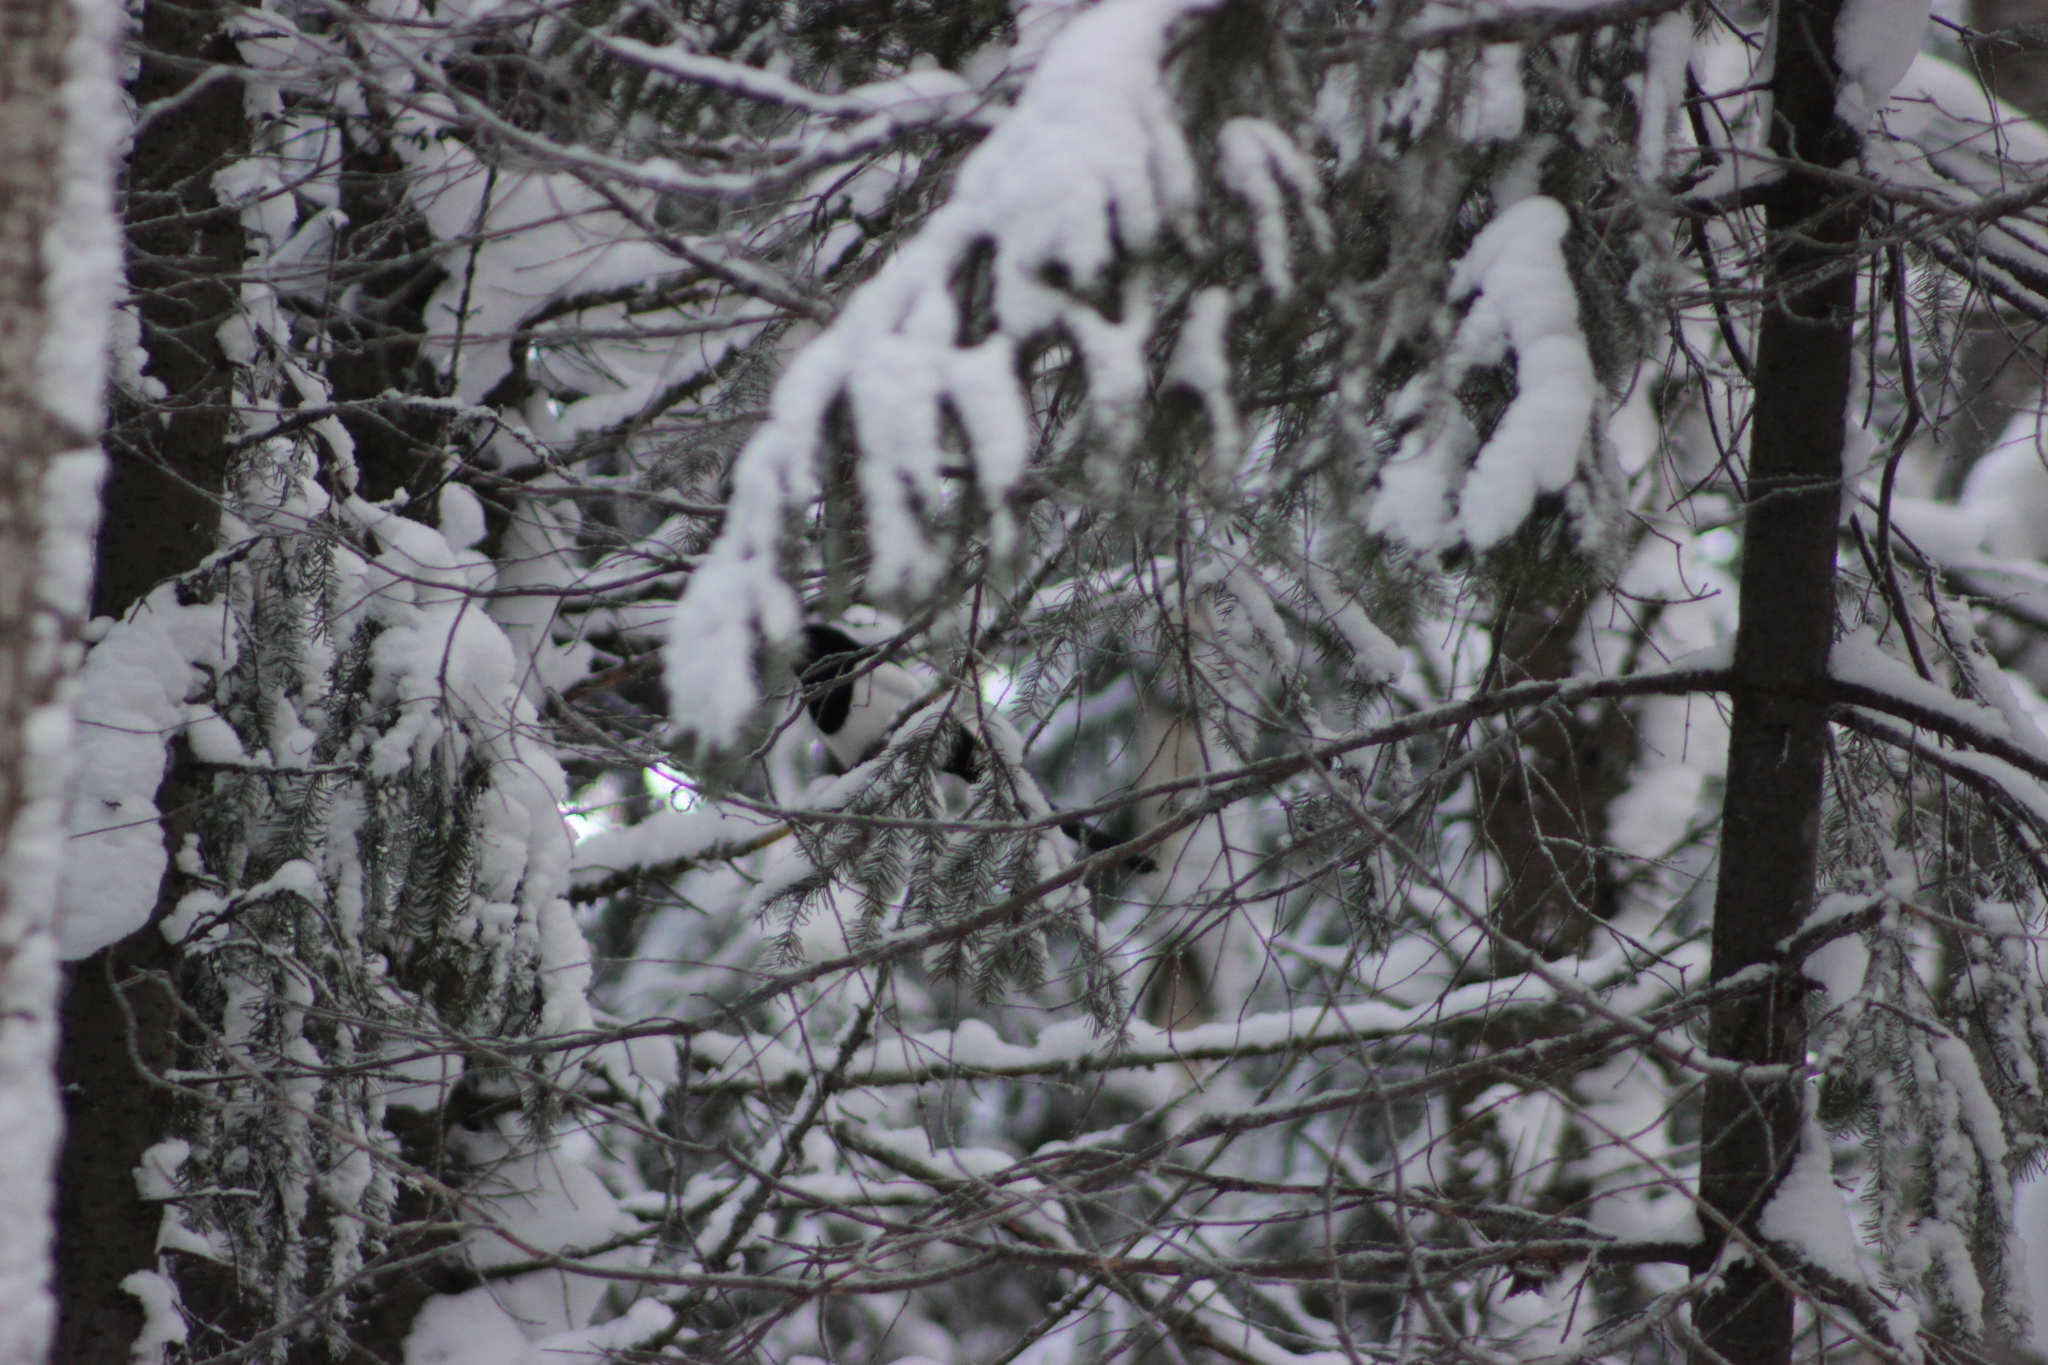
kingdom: Animalia
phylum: Chordata
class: Aves
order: Passeriformes
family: Corvidae
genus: Pica
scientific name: Pica pica
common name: Eurasian magpie
